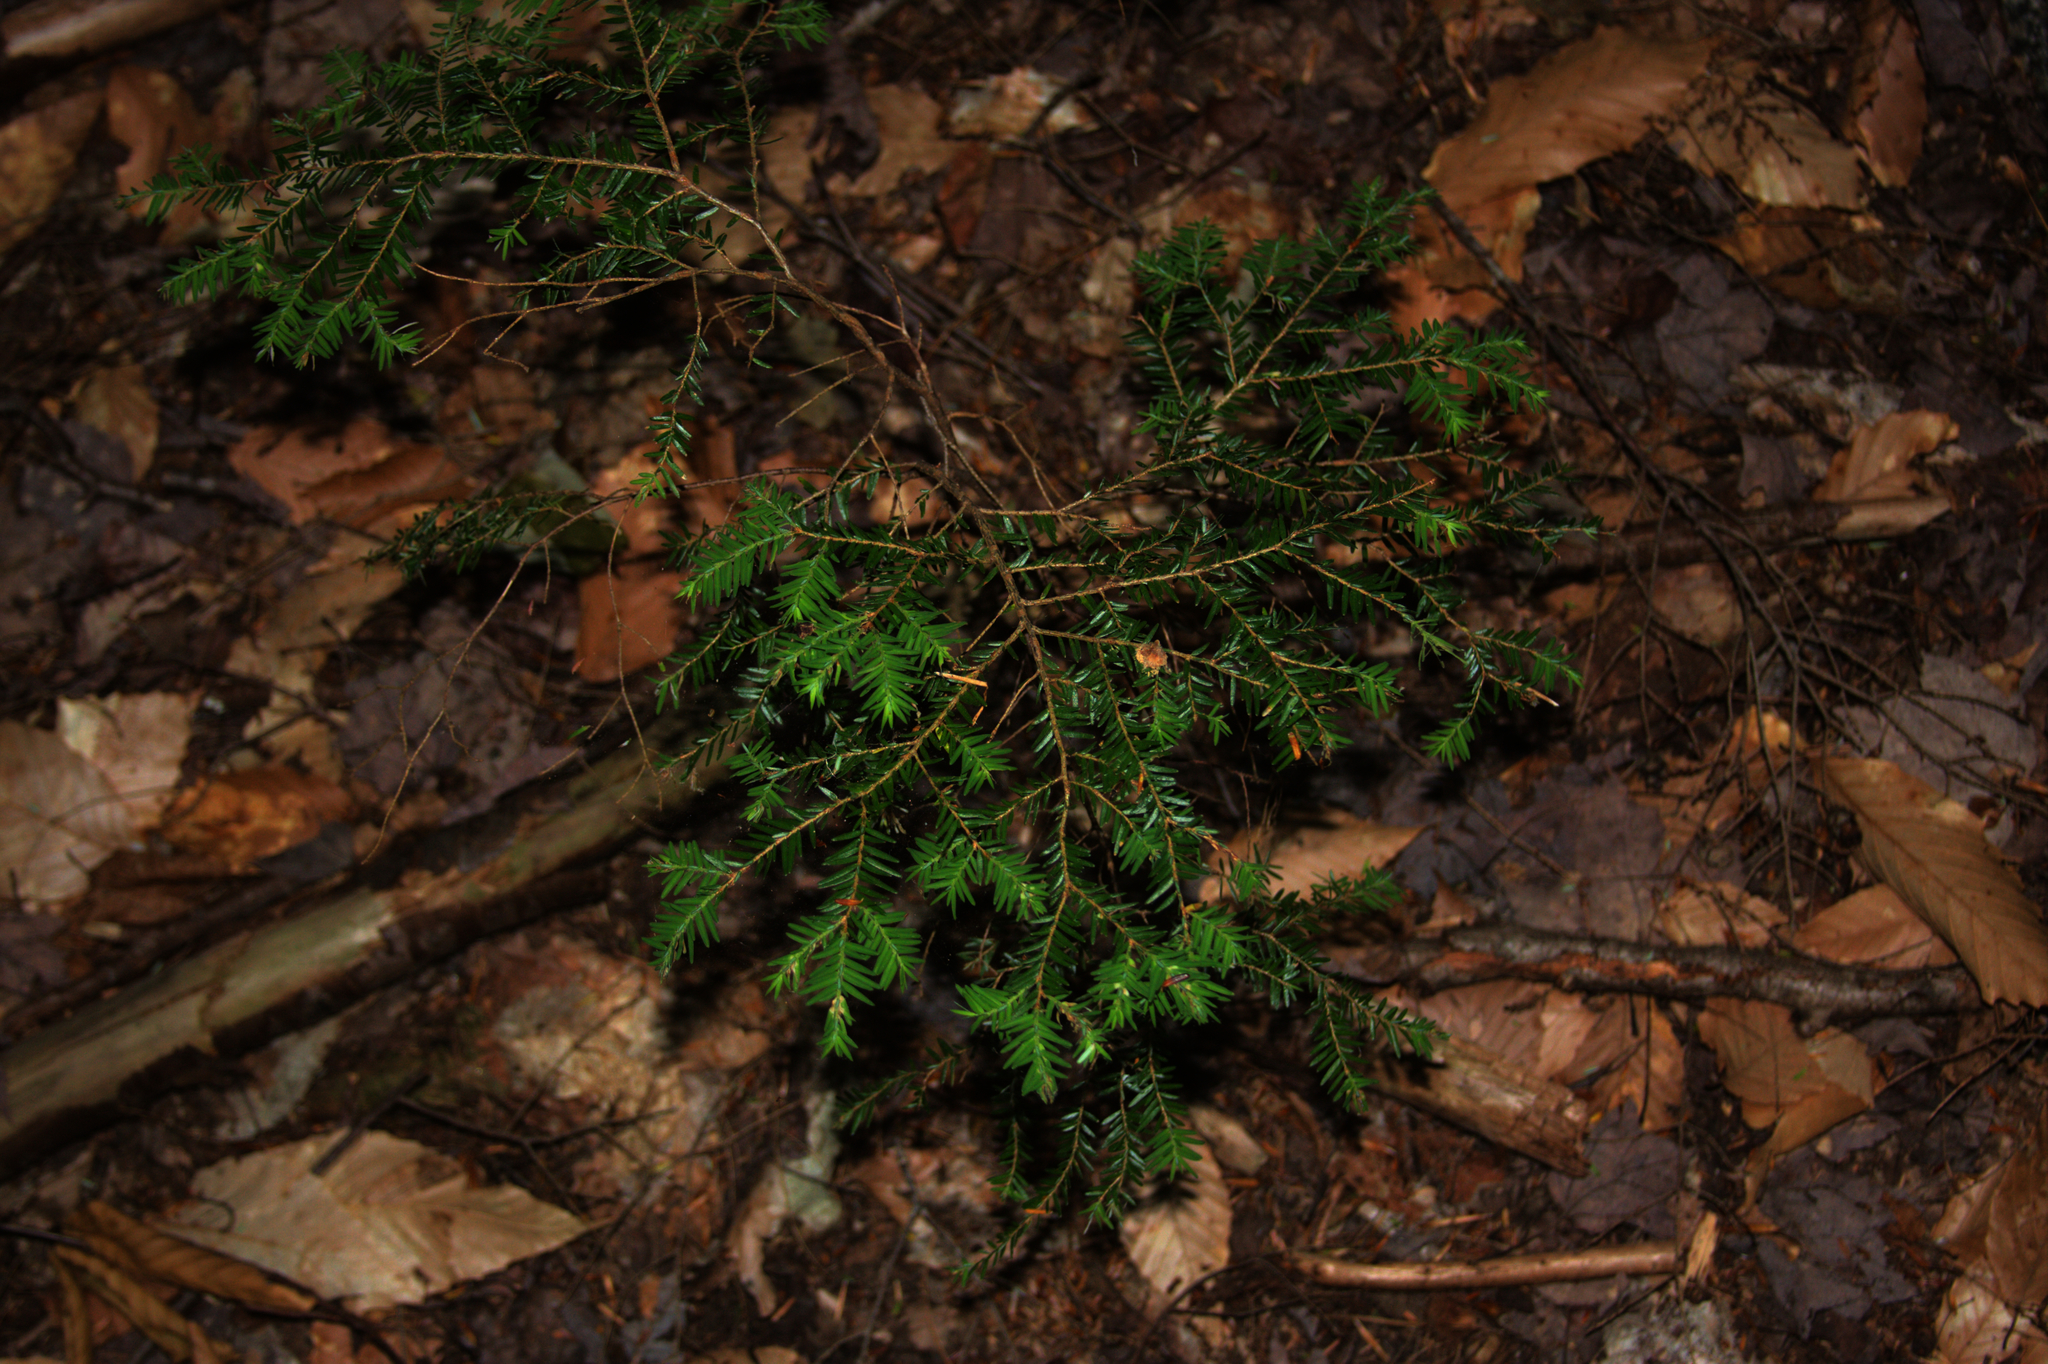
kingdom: Plantae
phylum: Tracheophyta
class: Pinopsida
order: Pinales
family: Pinaceae
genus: Tsuga
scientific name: Tsuga canadensis
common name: Eastern hemlock
